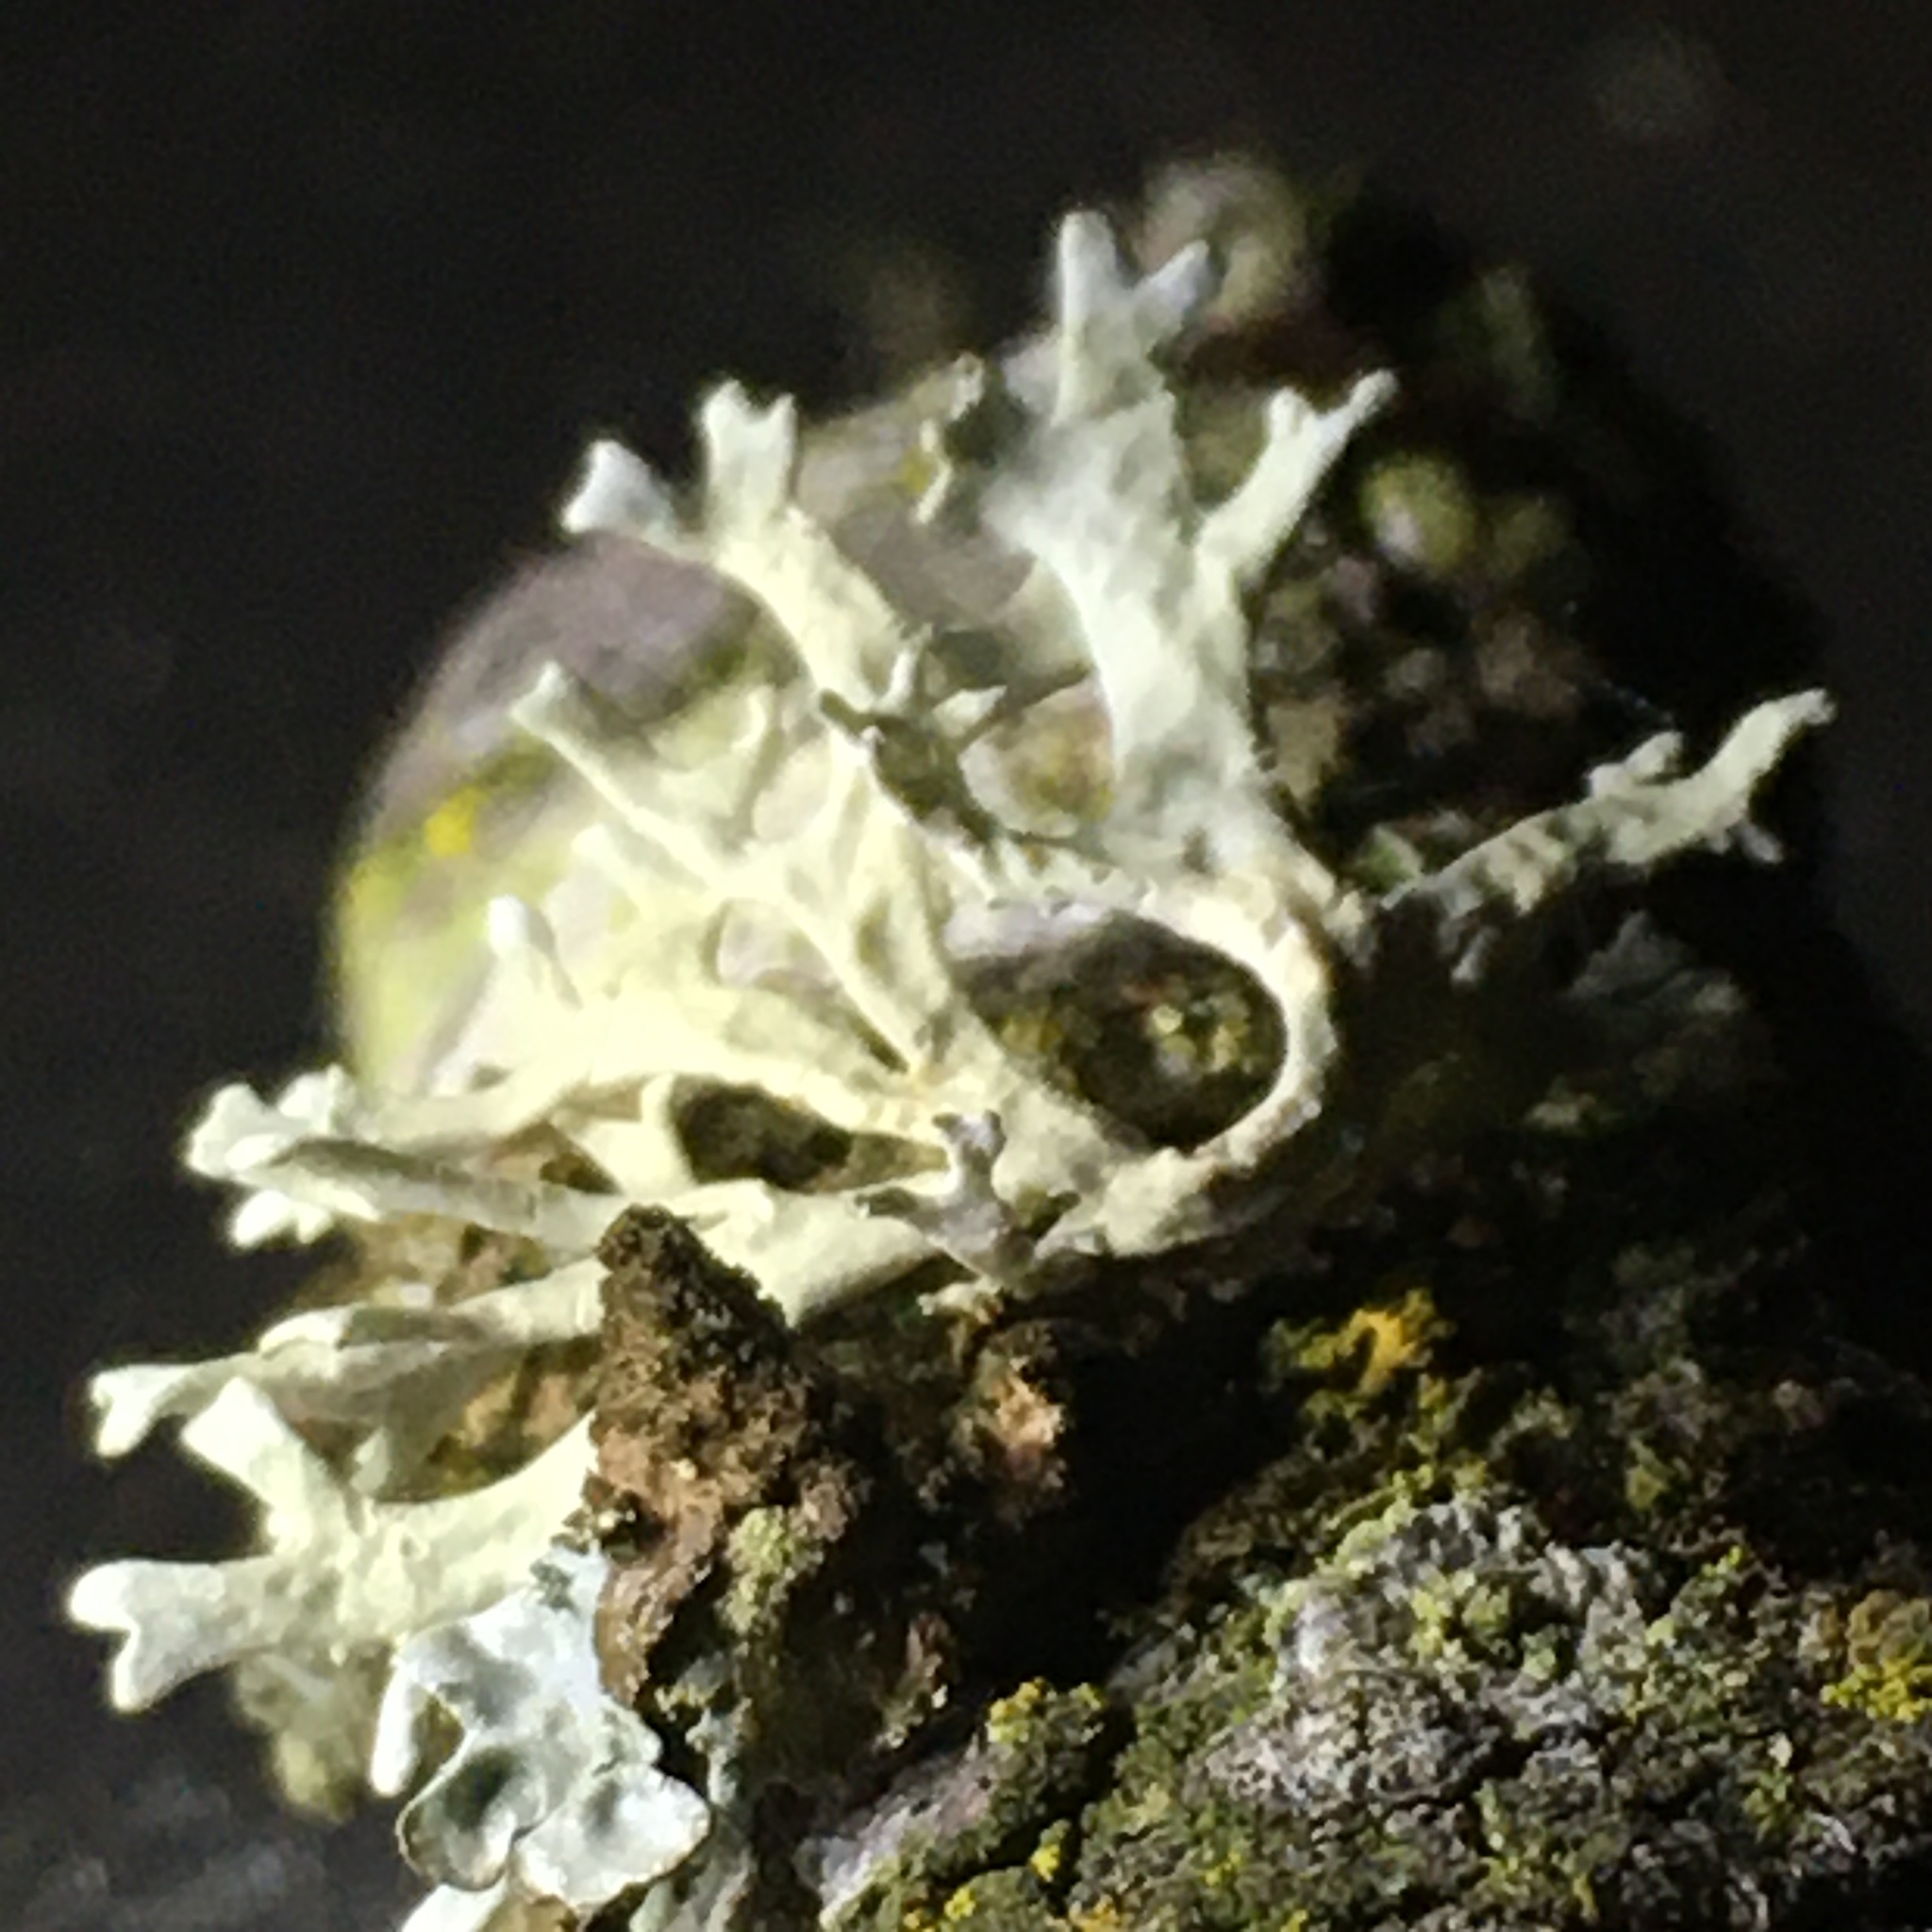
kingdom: Fungi
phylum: Ascomycota
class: Lecanoromycetes
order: Lecanorales
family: Parmeliaceae
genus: Evernia
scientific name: Evernia prunastri
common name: Oak moss
